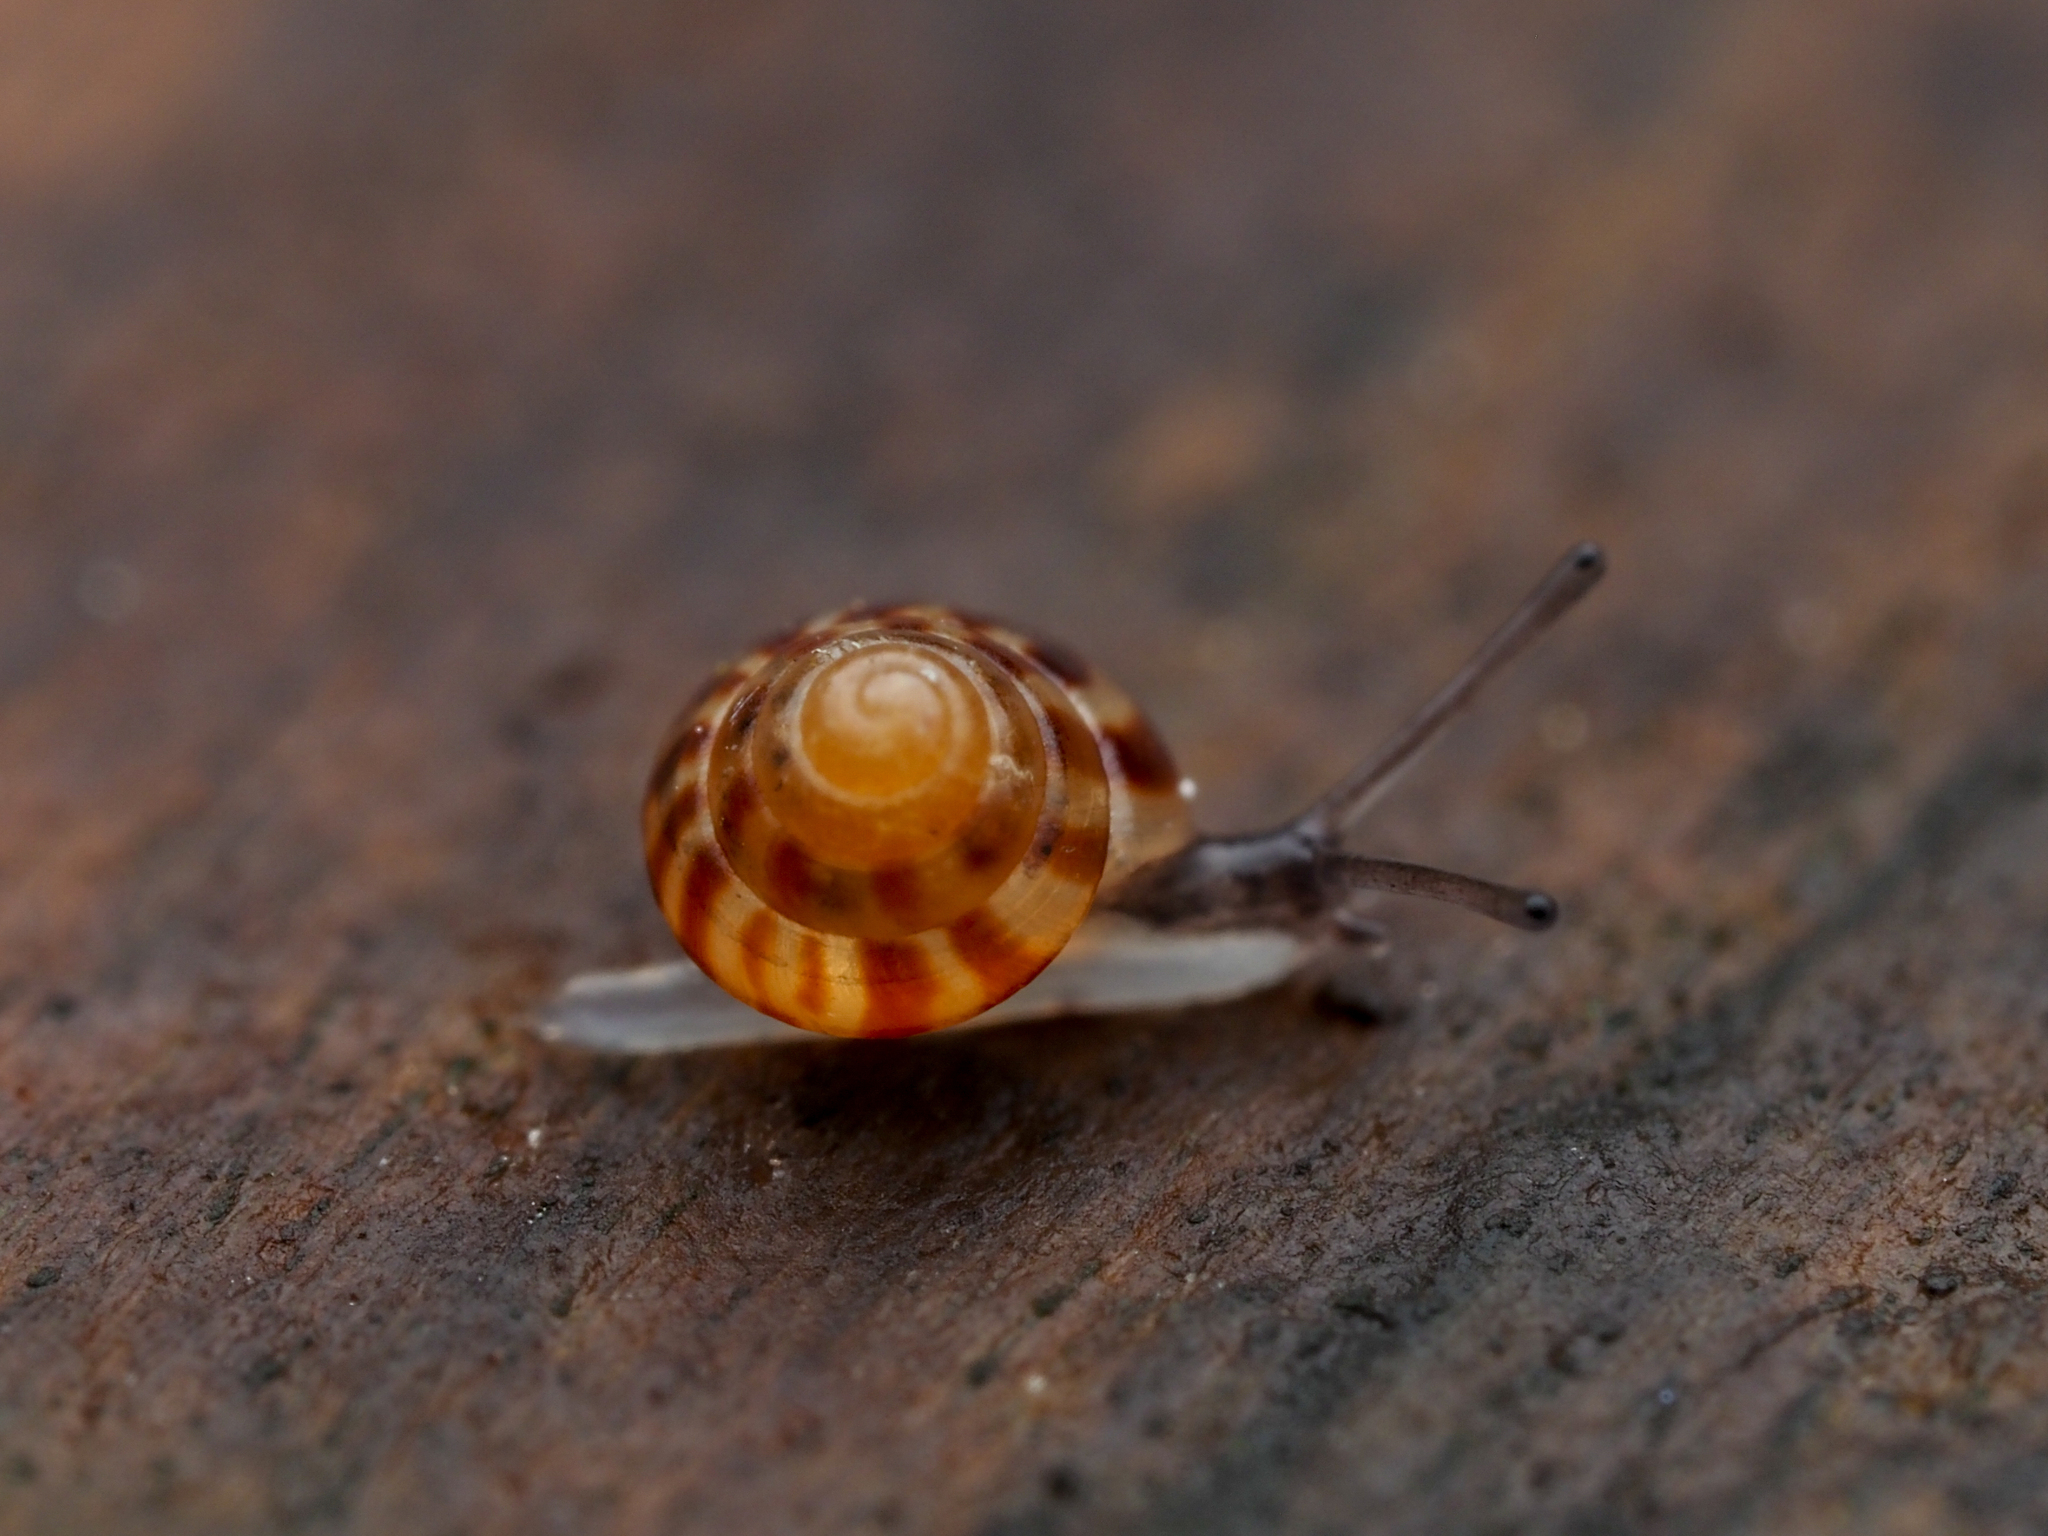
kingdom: Animalia
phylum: Mollusca
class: Gastropoda
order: Stylommatophora
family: Punctidae
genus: Phrixgnathus
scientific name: Phrixgnathus erigone
